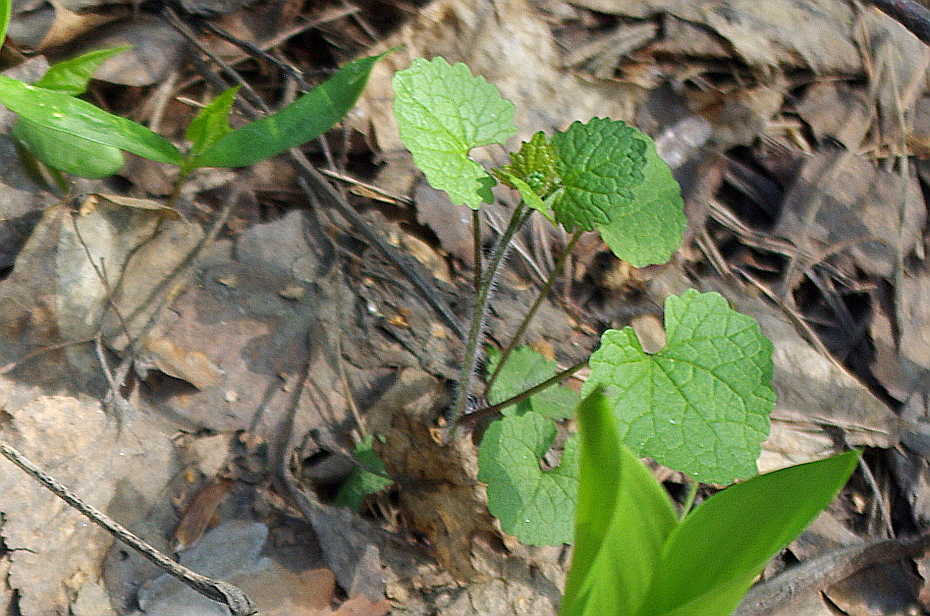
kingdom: Plantae
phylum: Tracheophyta
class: Magnoliopsida
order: Brassicales
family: Brassicaceae
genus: Alliaria
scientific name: Alliaria petiolata
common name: Garlic mustard
